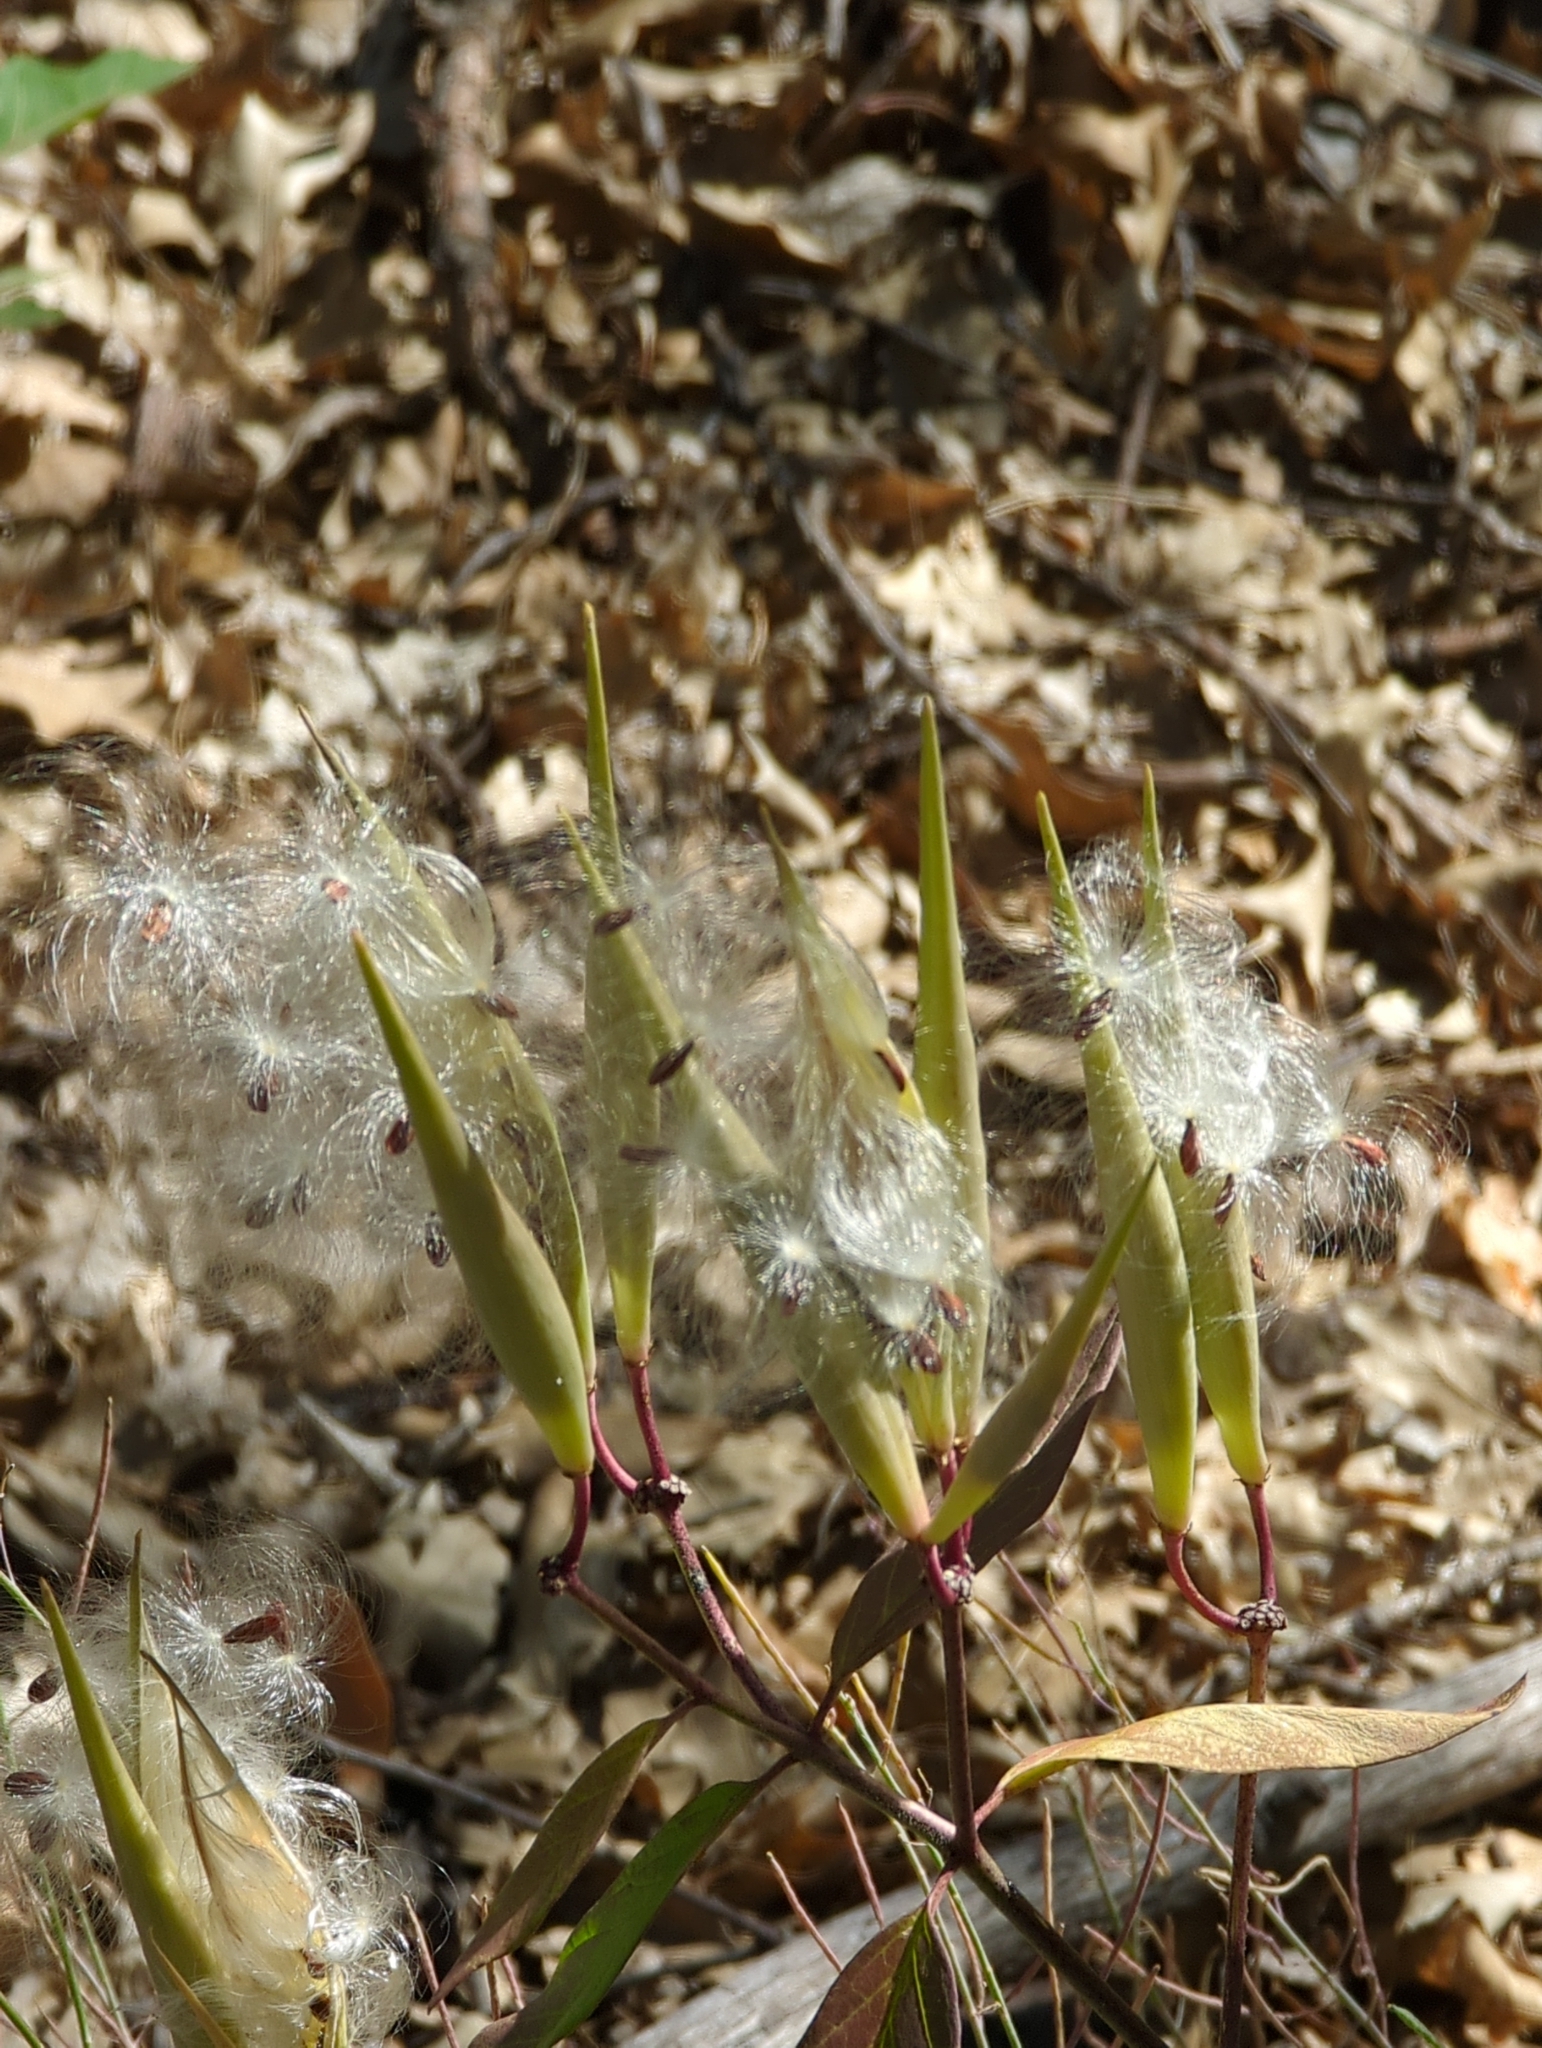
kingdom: Plantae
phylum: Tracheophyta
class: Magnoliopsida
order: Gentianales
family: Apocynaceae
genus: Asclepias
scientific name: Asclepias texana
